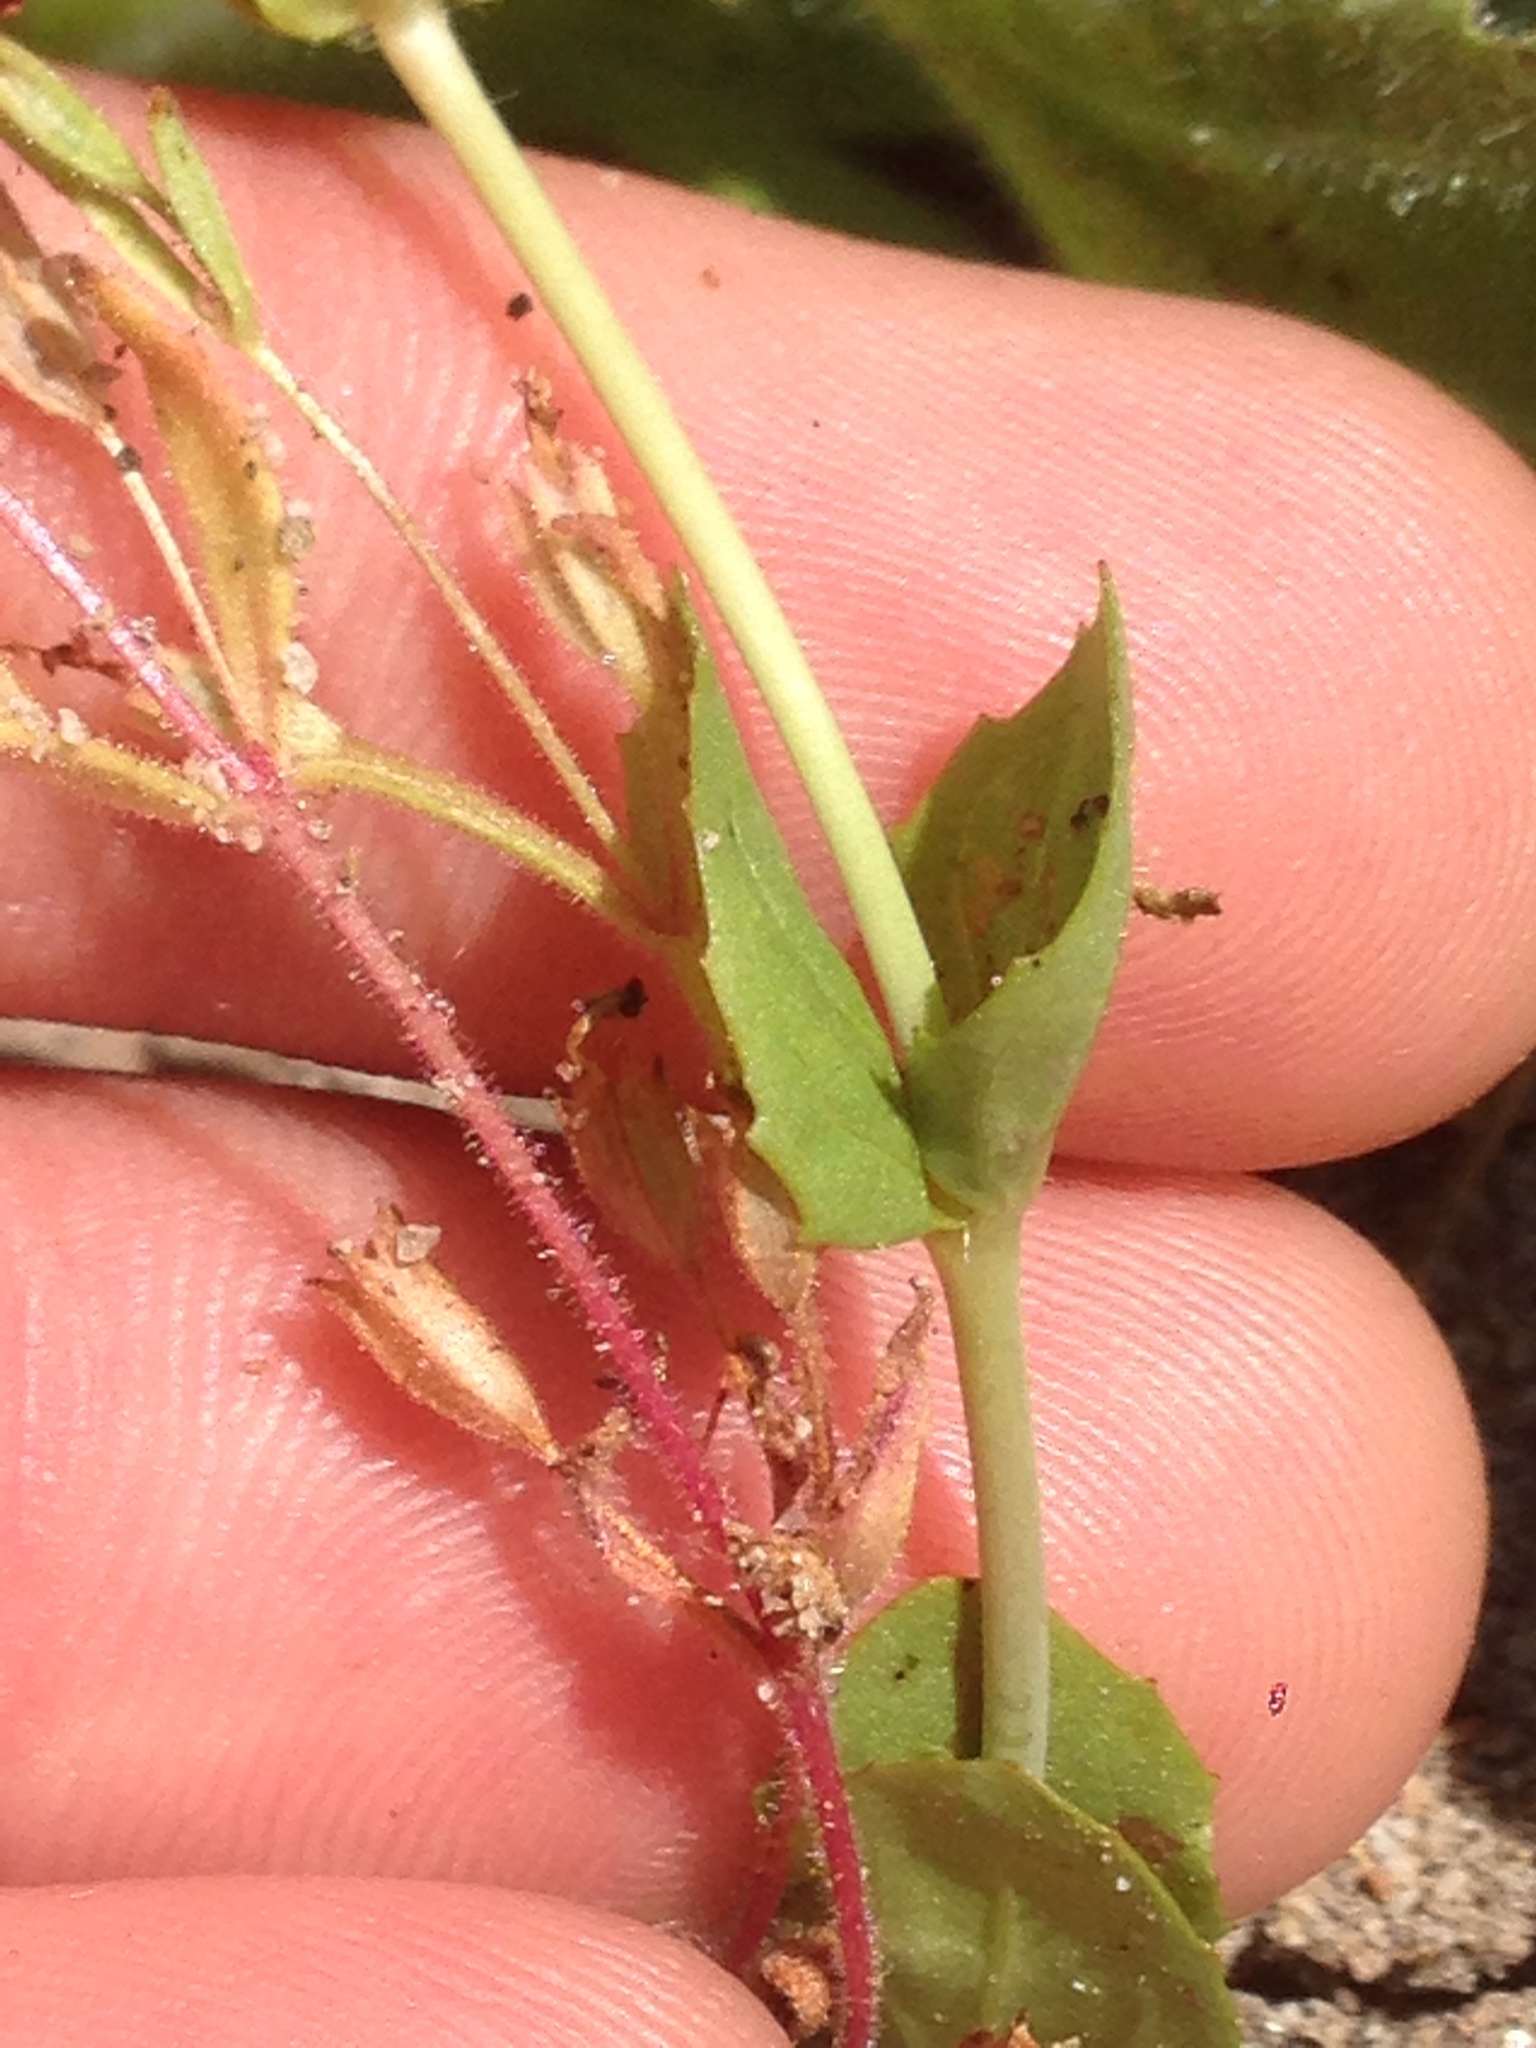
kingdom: Plantae
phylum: Tracheophyta
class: Magnoliopsida
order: Lamiales
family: Phrymaceae
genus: Erythranthe
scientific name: Erythranthe guttata
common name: Monkeyflower
